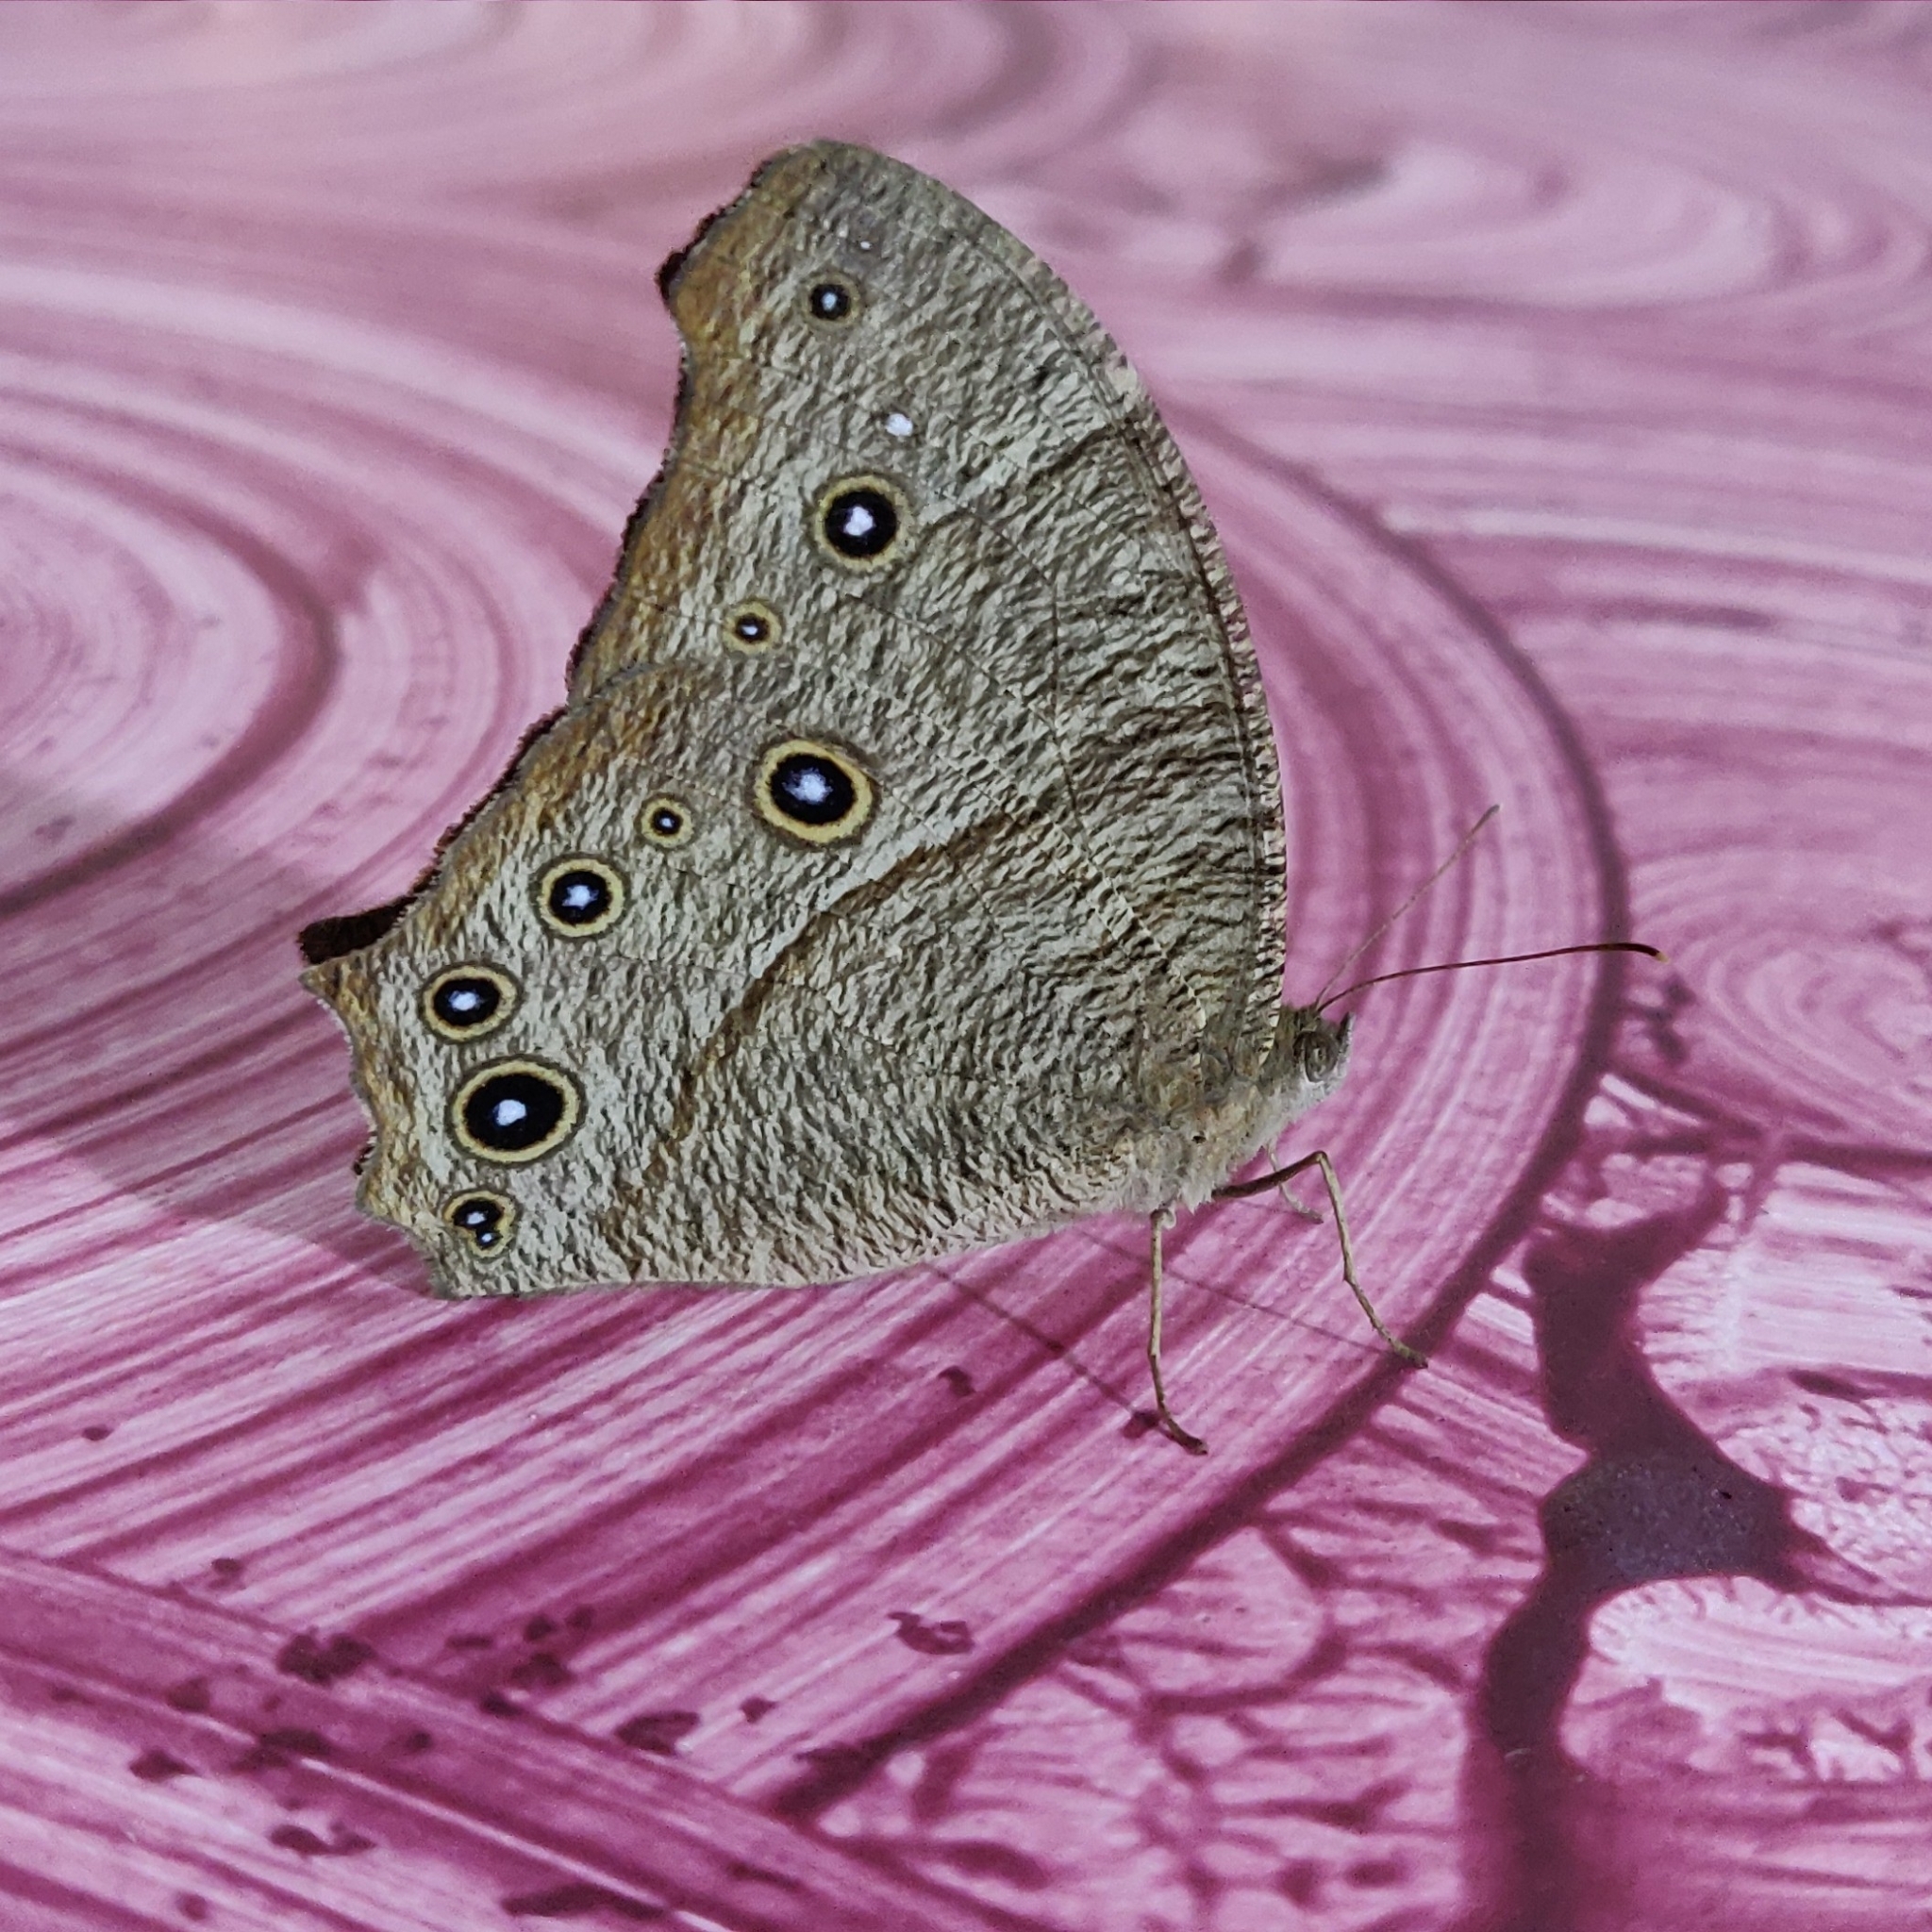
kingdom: Animalia
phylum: Arthropoda
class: Insecta
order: Lepidoptera
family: Nymphalidae
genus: Melanitis
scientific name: Melanitis leda
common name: Twilight brown
